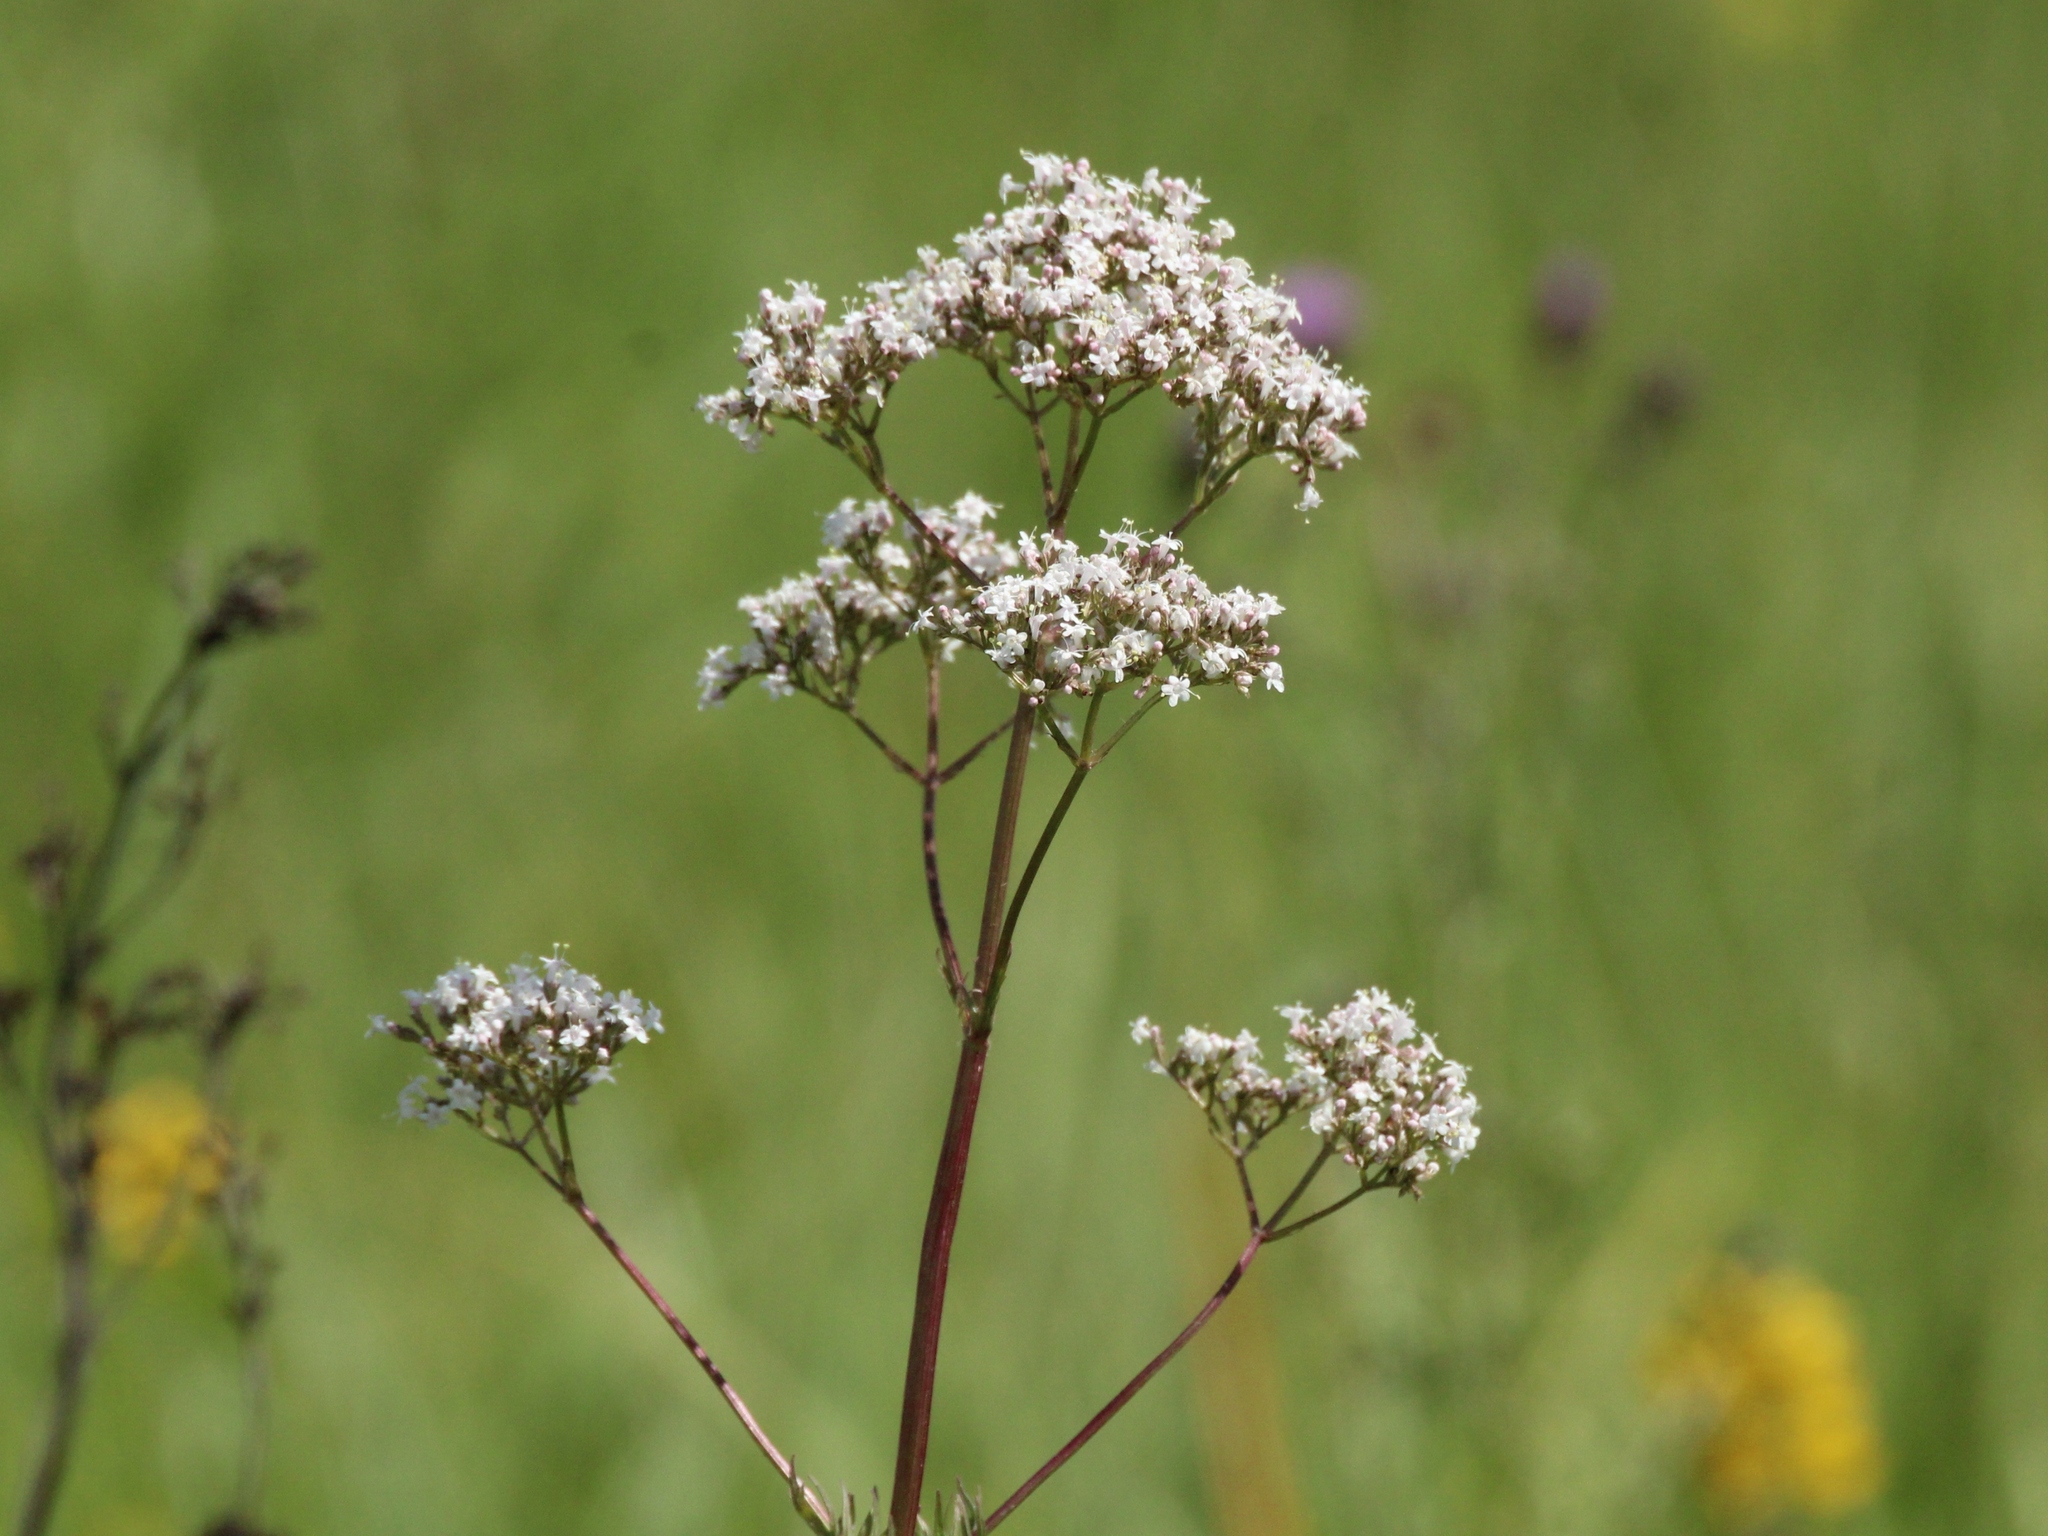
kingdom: Plantae
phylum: Tracheophyta
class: Magnoliopsida
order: Dipsacales
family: Caprifoliaceae
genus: Valeriana
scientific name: Valeriana officinalis
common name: Common valerian
